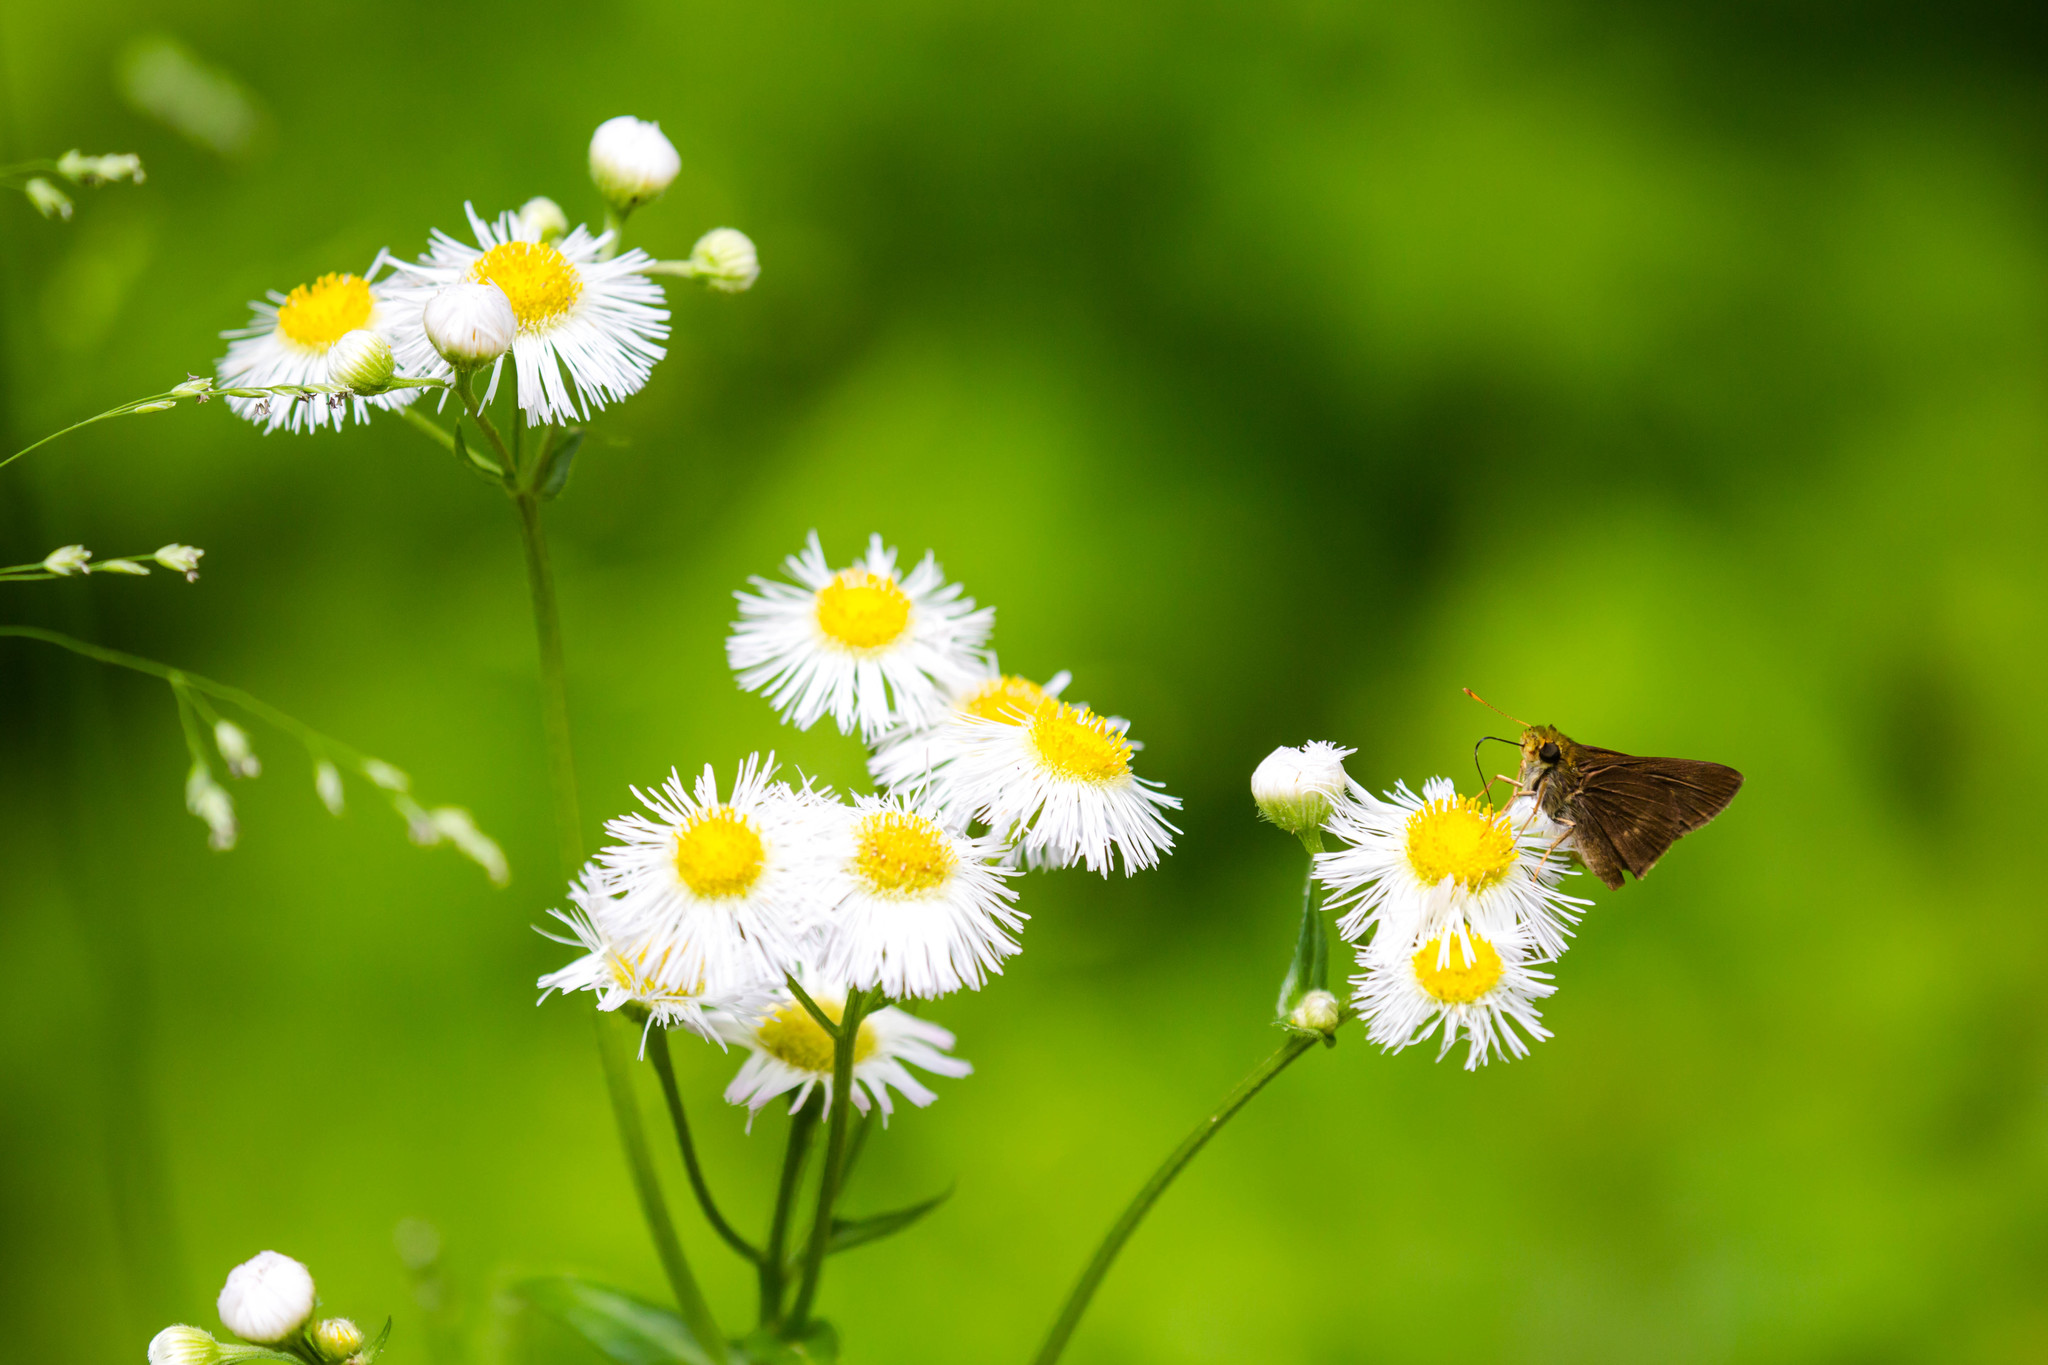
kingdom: Animalia
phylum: Arthropoda
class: Insecta
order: Lepidoptera
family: Hesperiidae
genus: Polites
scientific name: Polites egeremet
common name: Northern broken-dash
